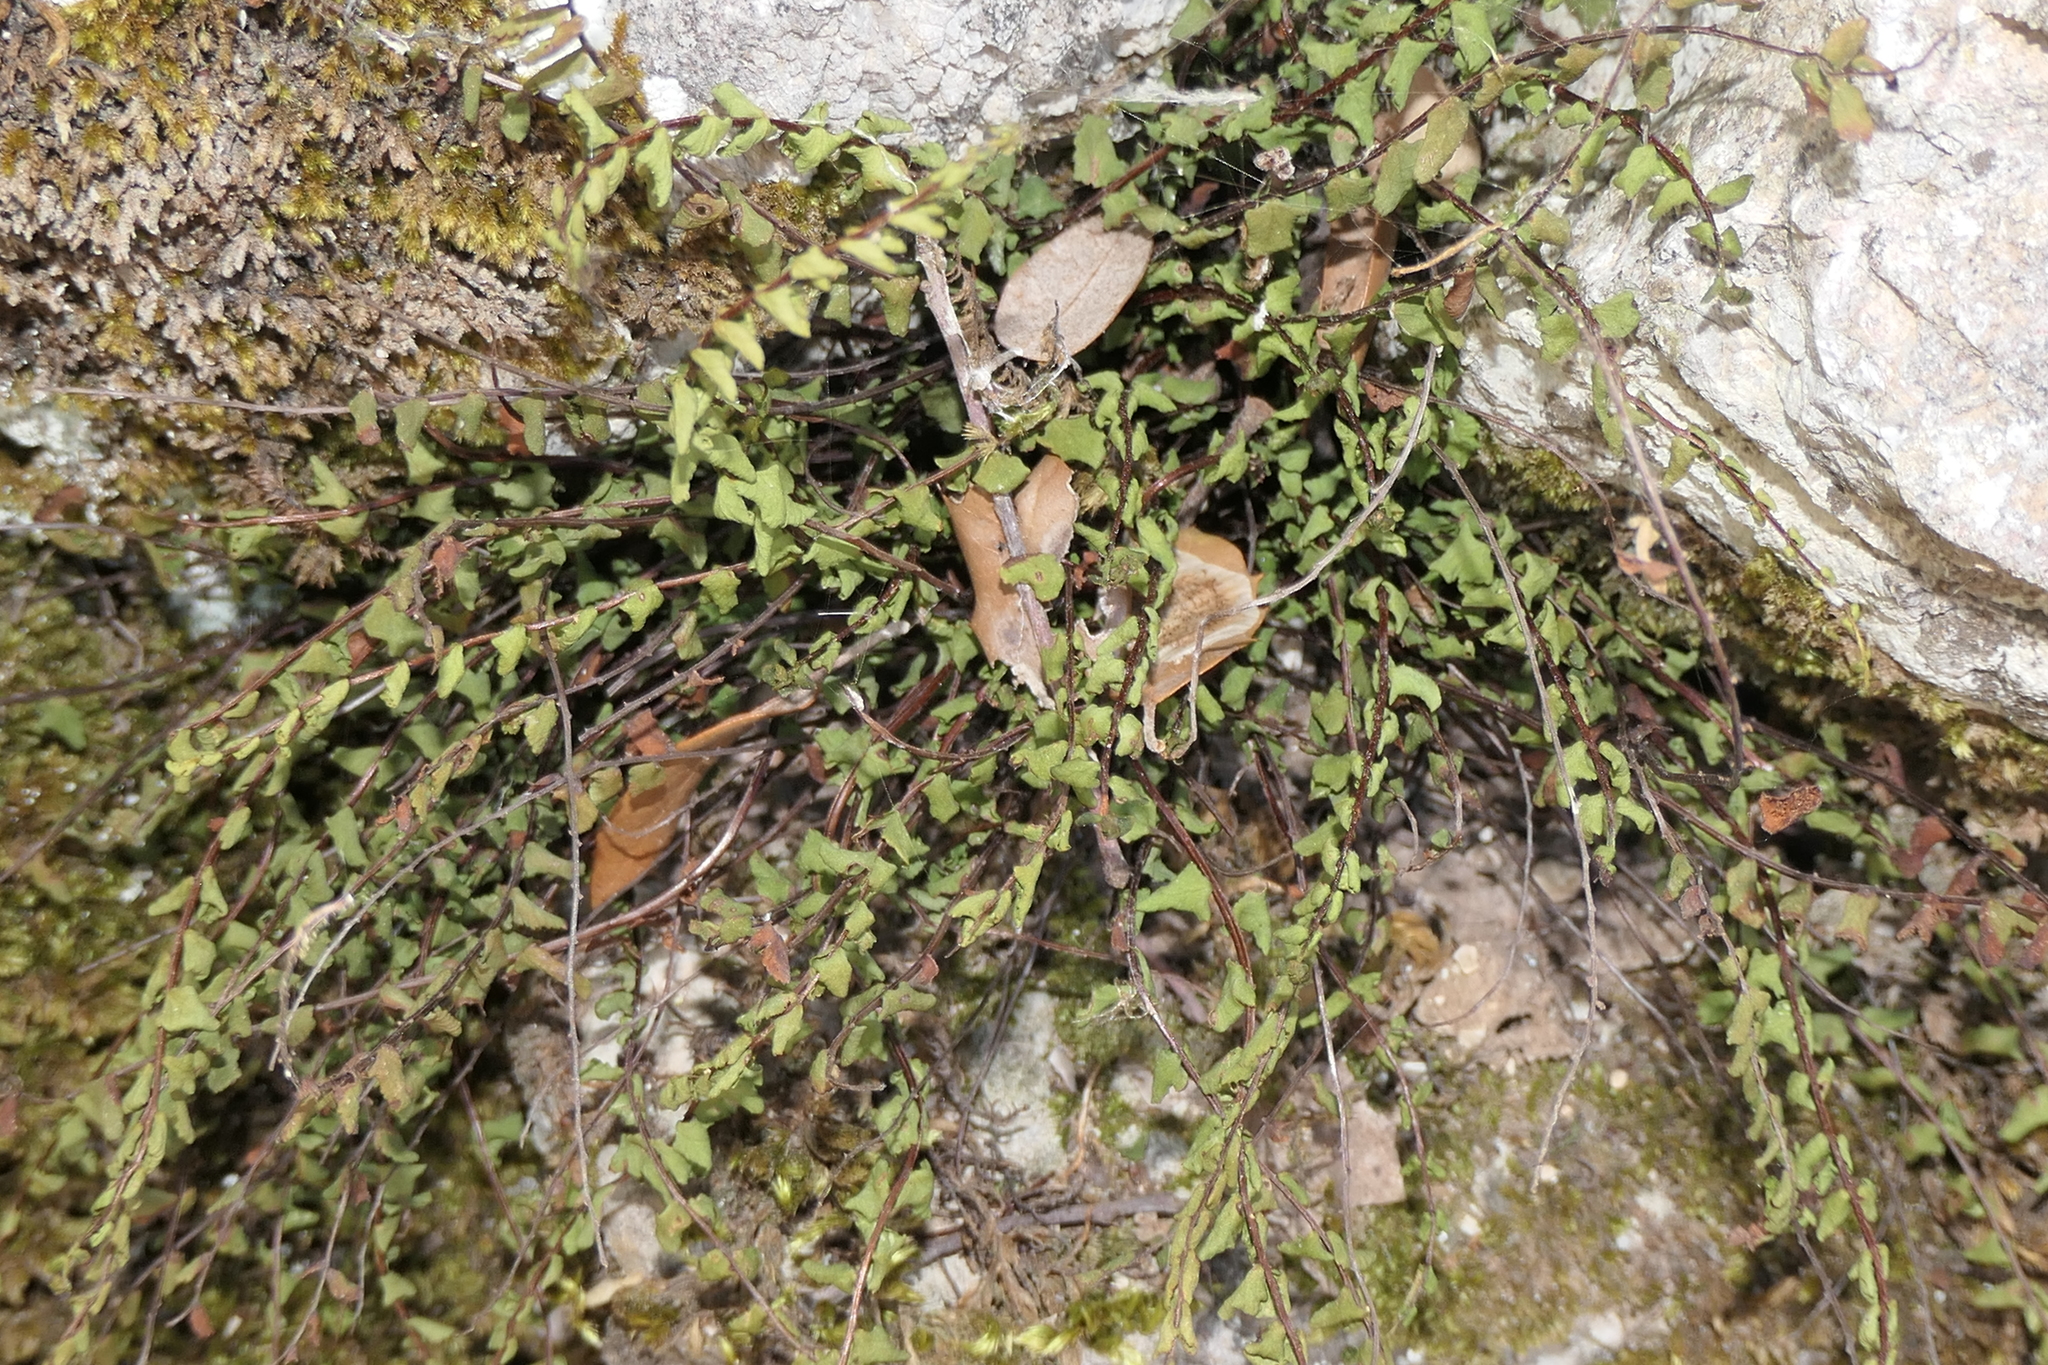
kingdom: Plantae
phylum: Tracheophyta
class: Polypodiopsida
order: Polypodiales
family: Aspleniaceae
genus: Asplenium
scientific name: Asplenium trichomanes
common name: Maidenhair spleenwort
